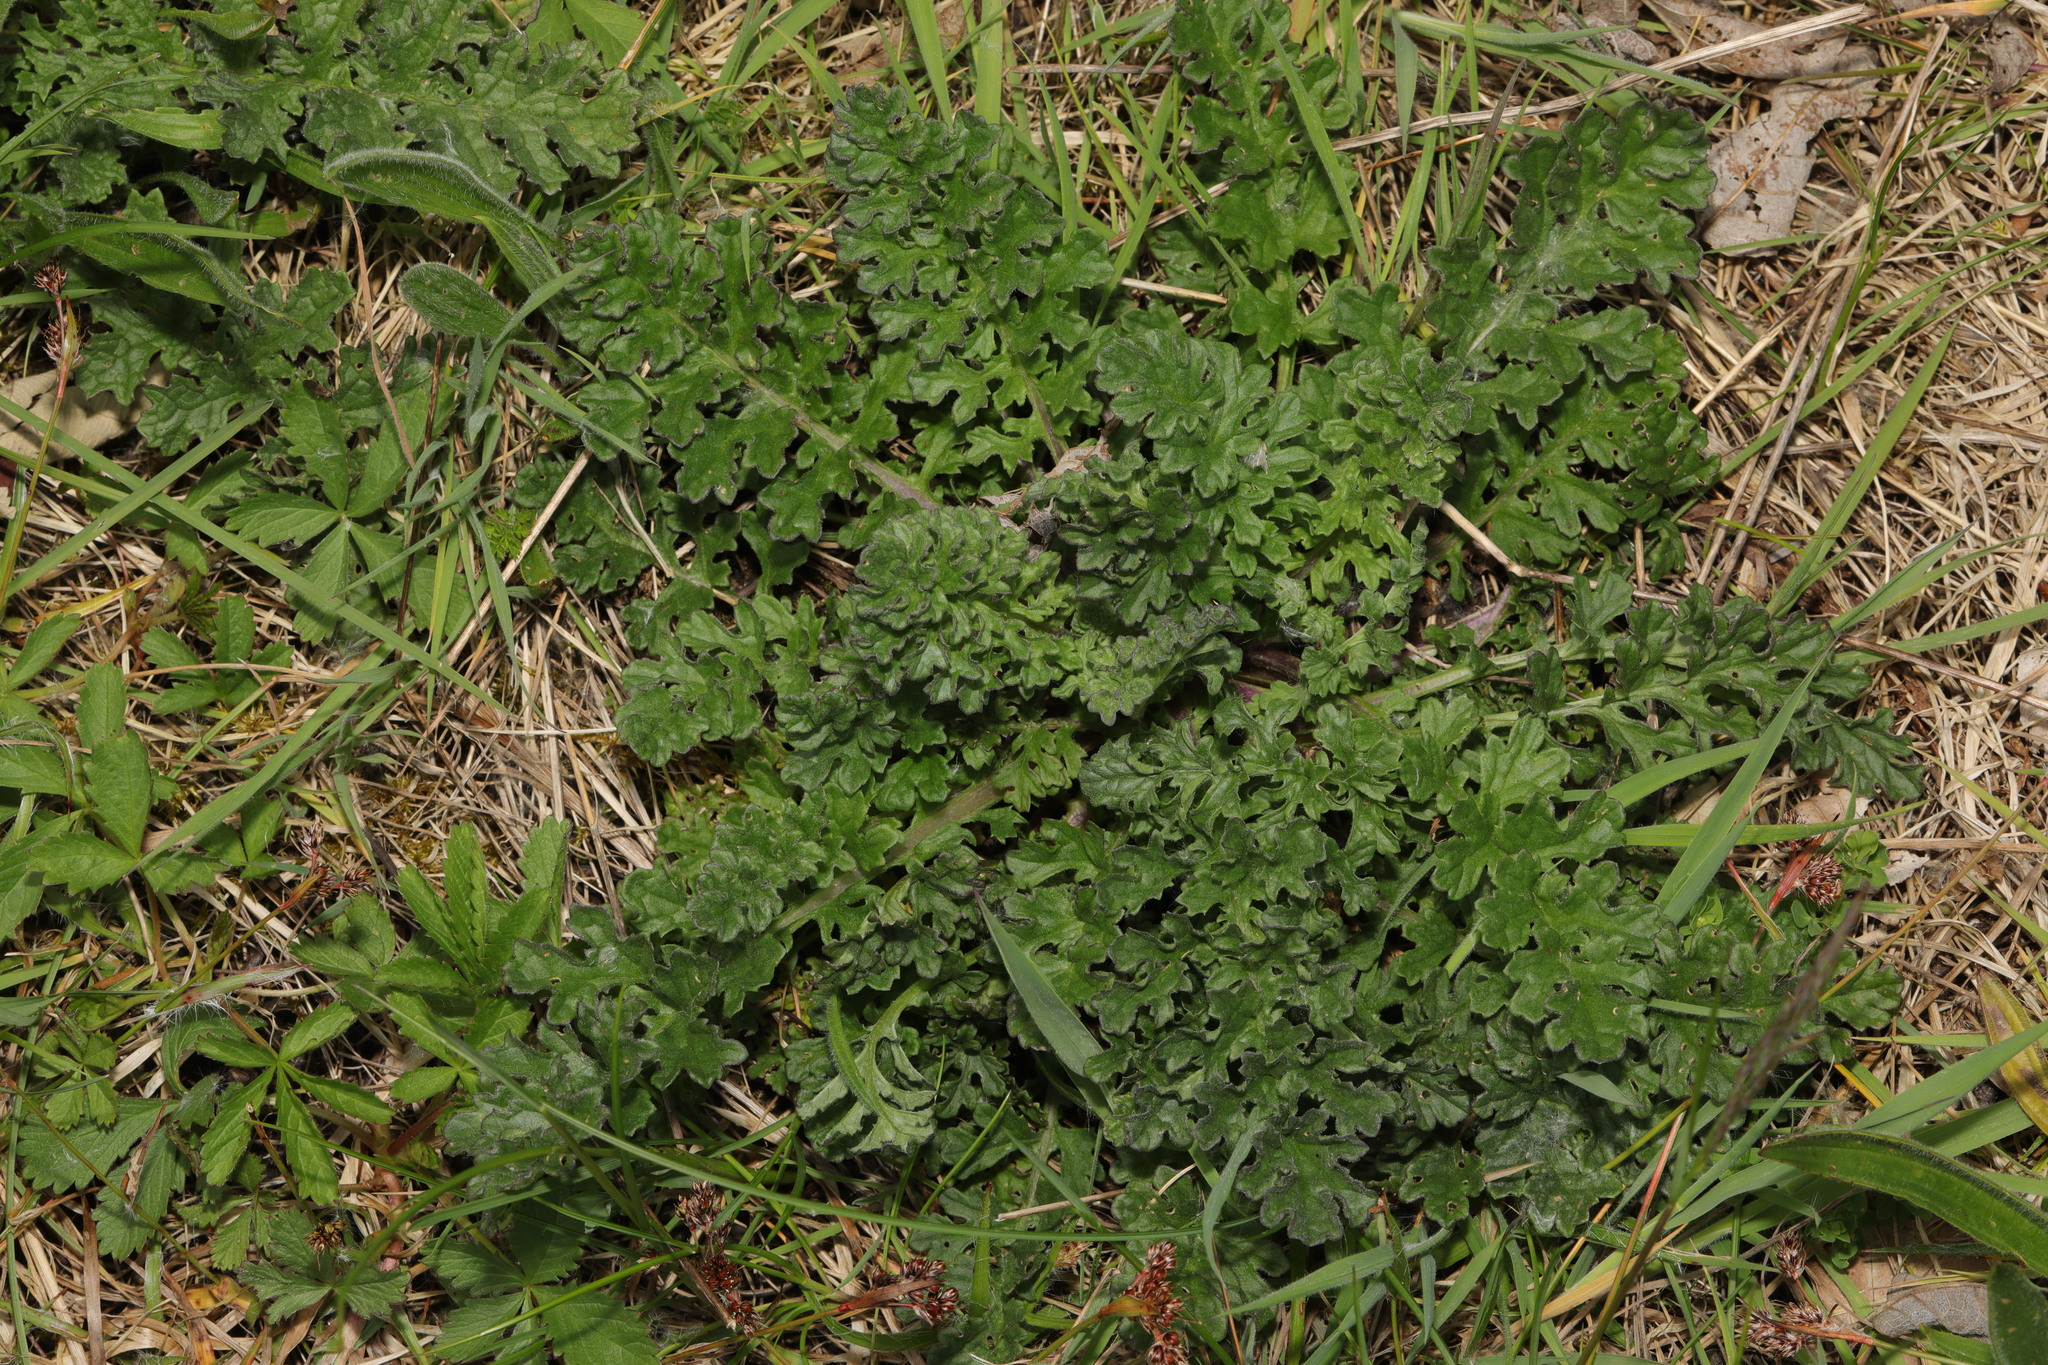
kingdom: Plantae
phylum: Tracheophyta
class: Magnoliopsida
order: Asterales
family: Asteraceae
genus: Jacobaea
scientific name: Jacobaea vulgaris
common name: Stinking willie
